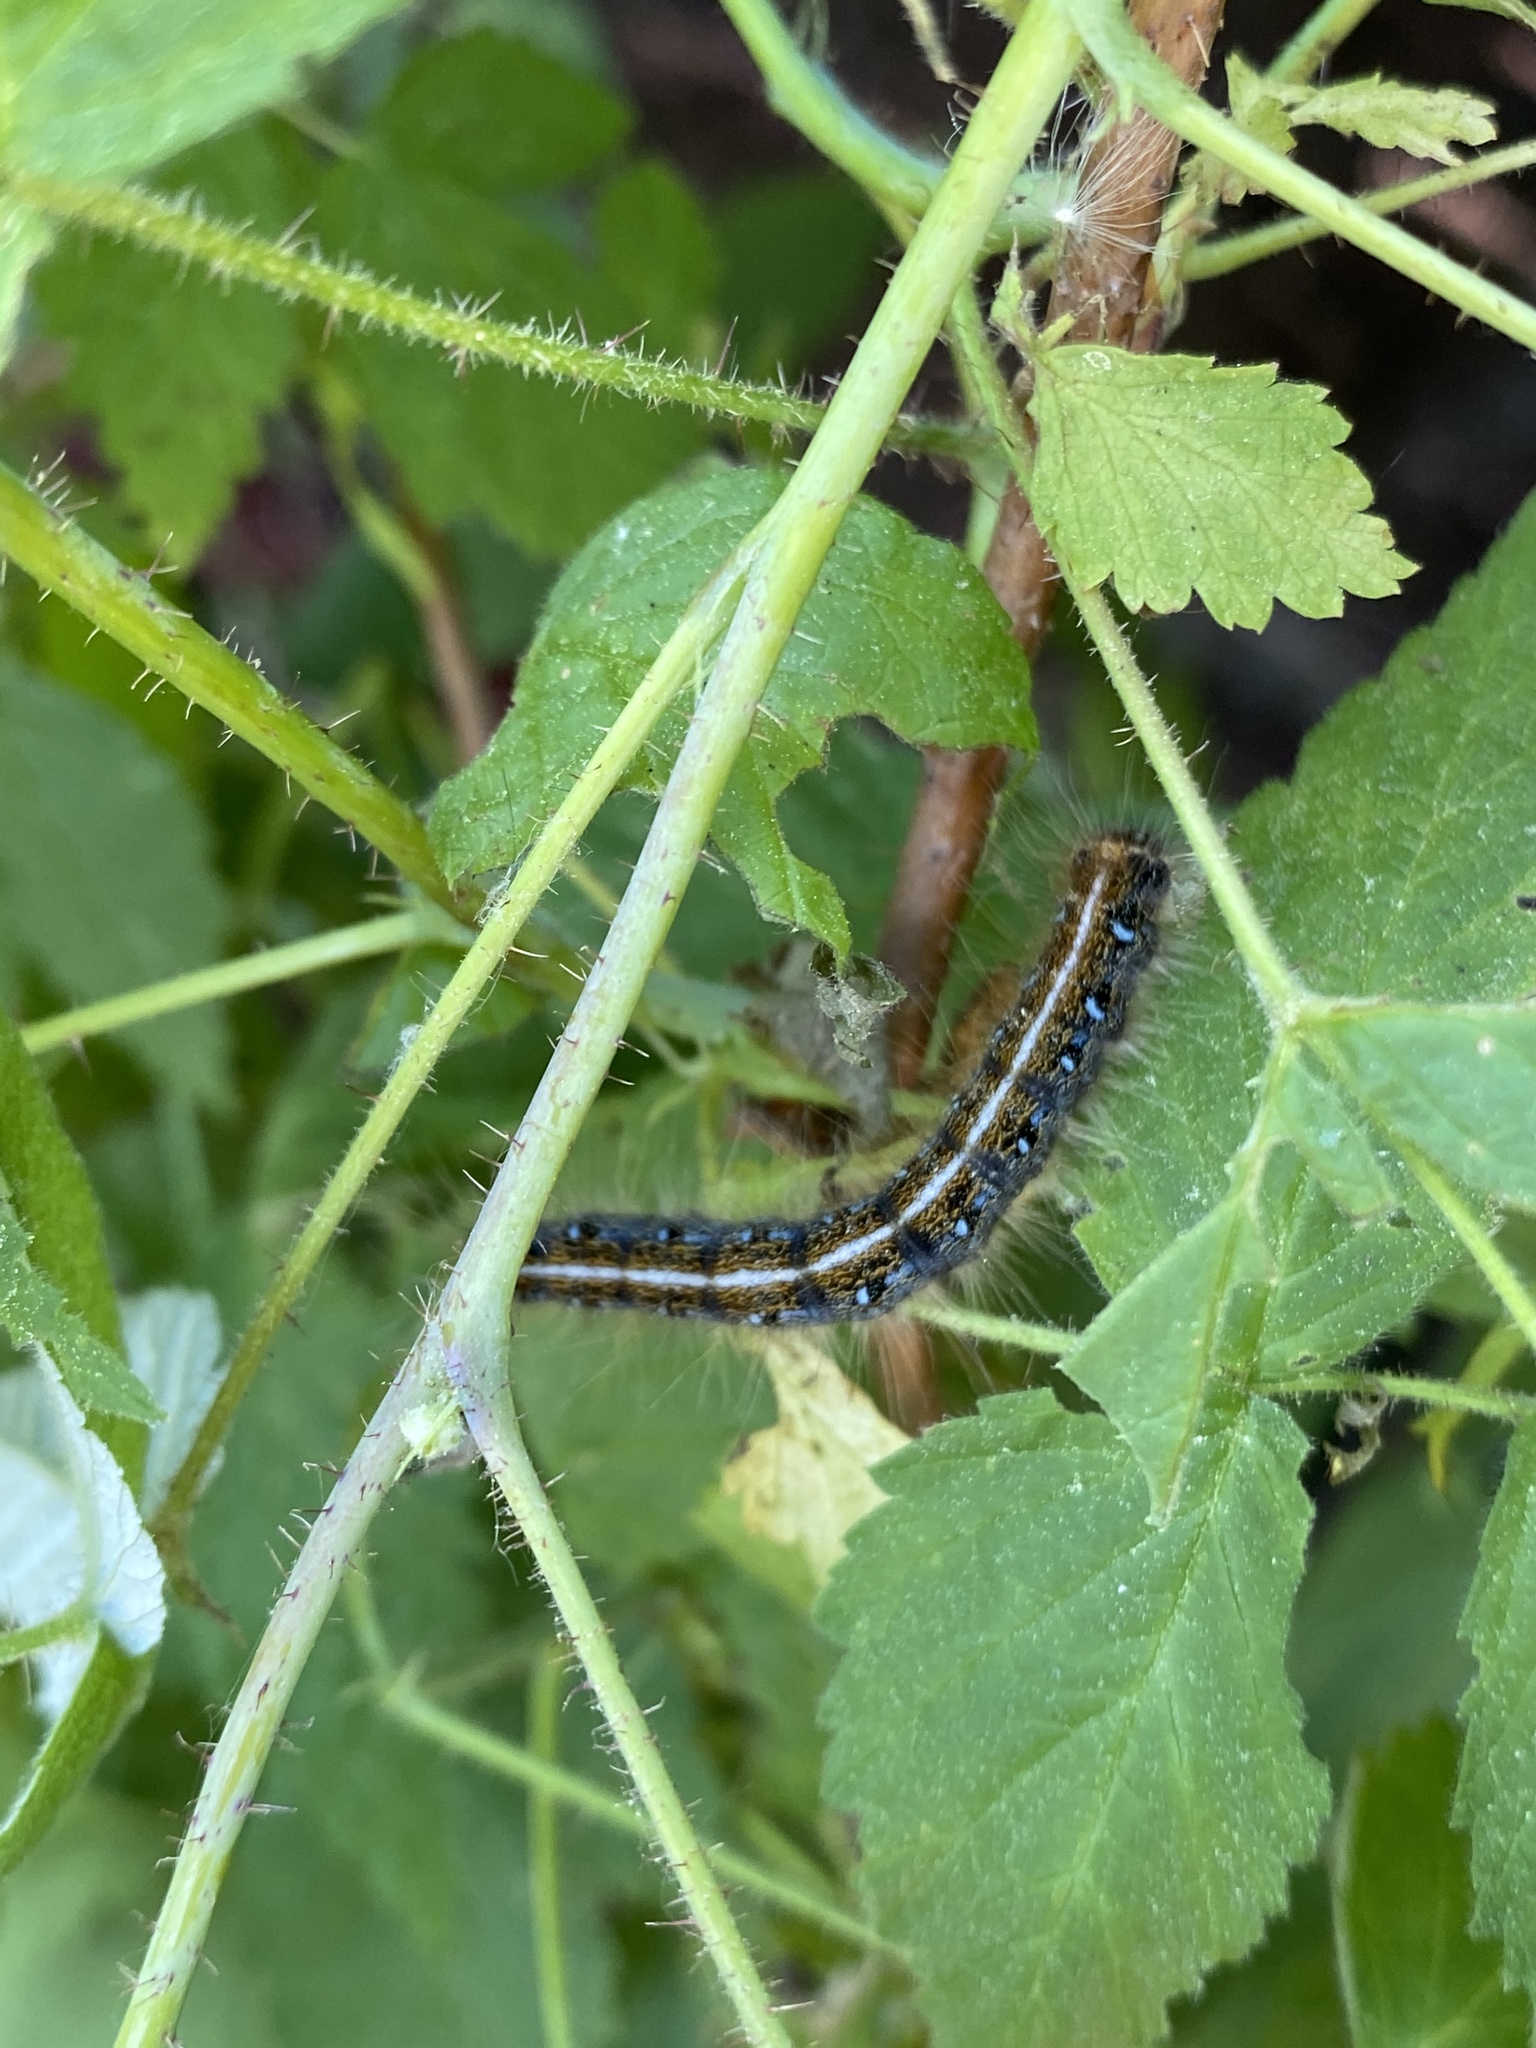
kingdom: Animalia
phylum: Arthropoda
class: Insecta
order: Lepidoptera
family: Lasiocampidae
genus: Malacosoma
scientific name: Malacosoma americana
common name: Eastern tent caterpillar moth
